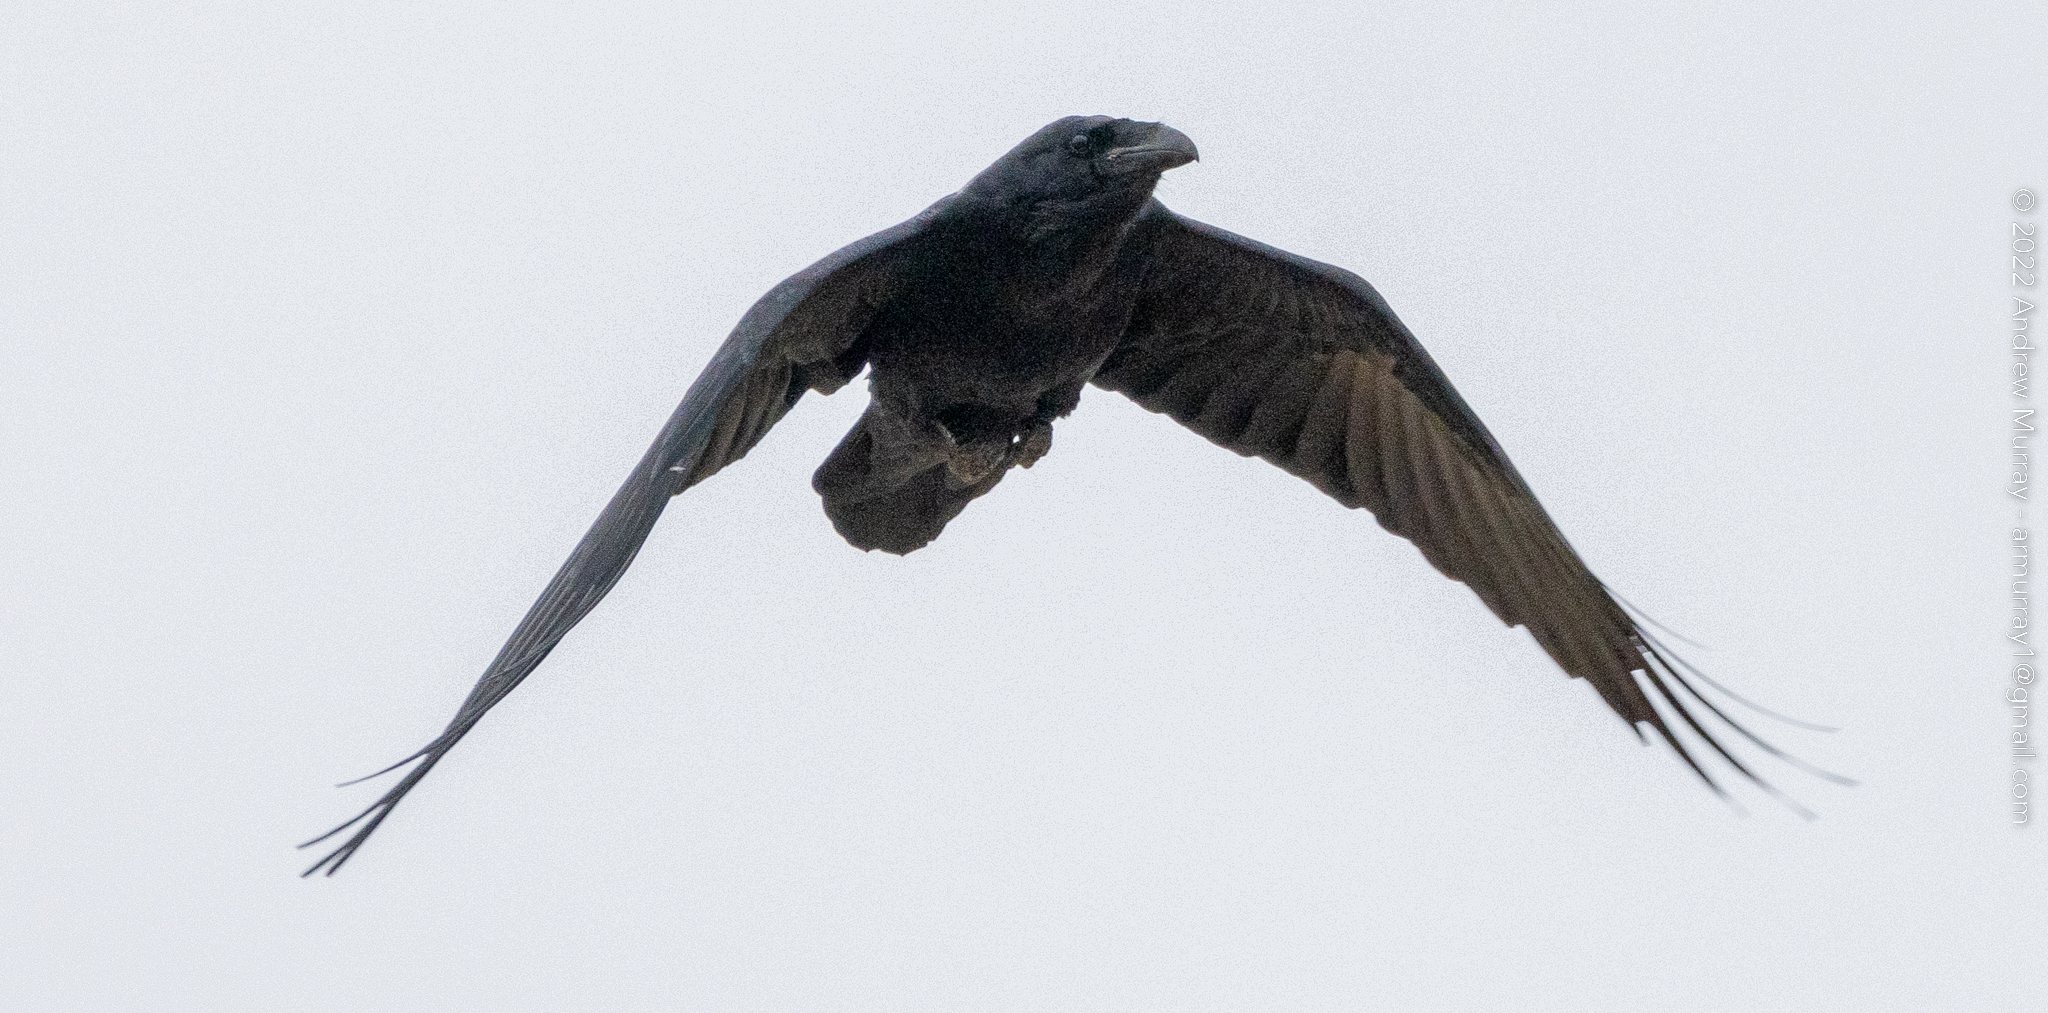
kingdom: Animalia
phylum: Chordata
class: Aves
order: Passeriformes
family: Corvidae
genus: Corvus
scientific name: Corvus corax
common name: Common raven
